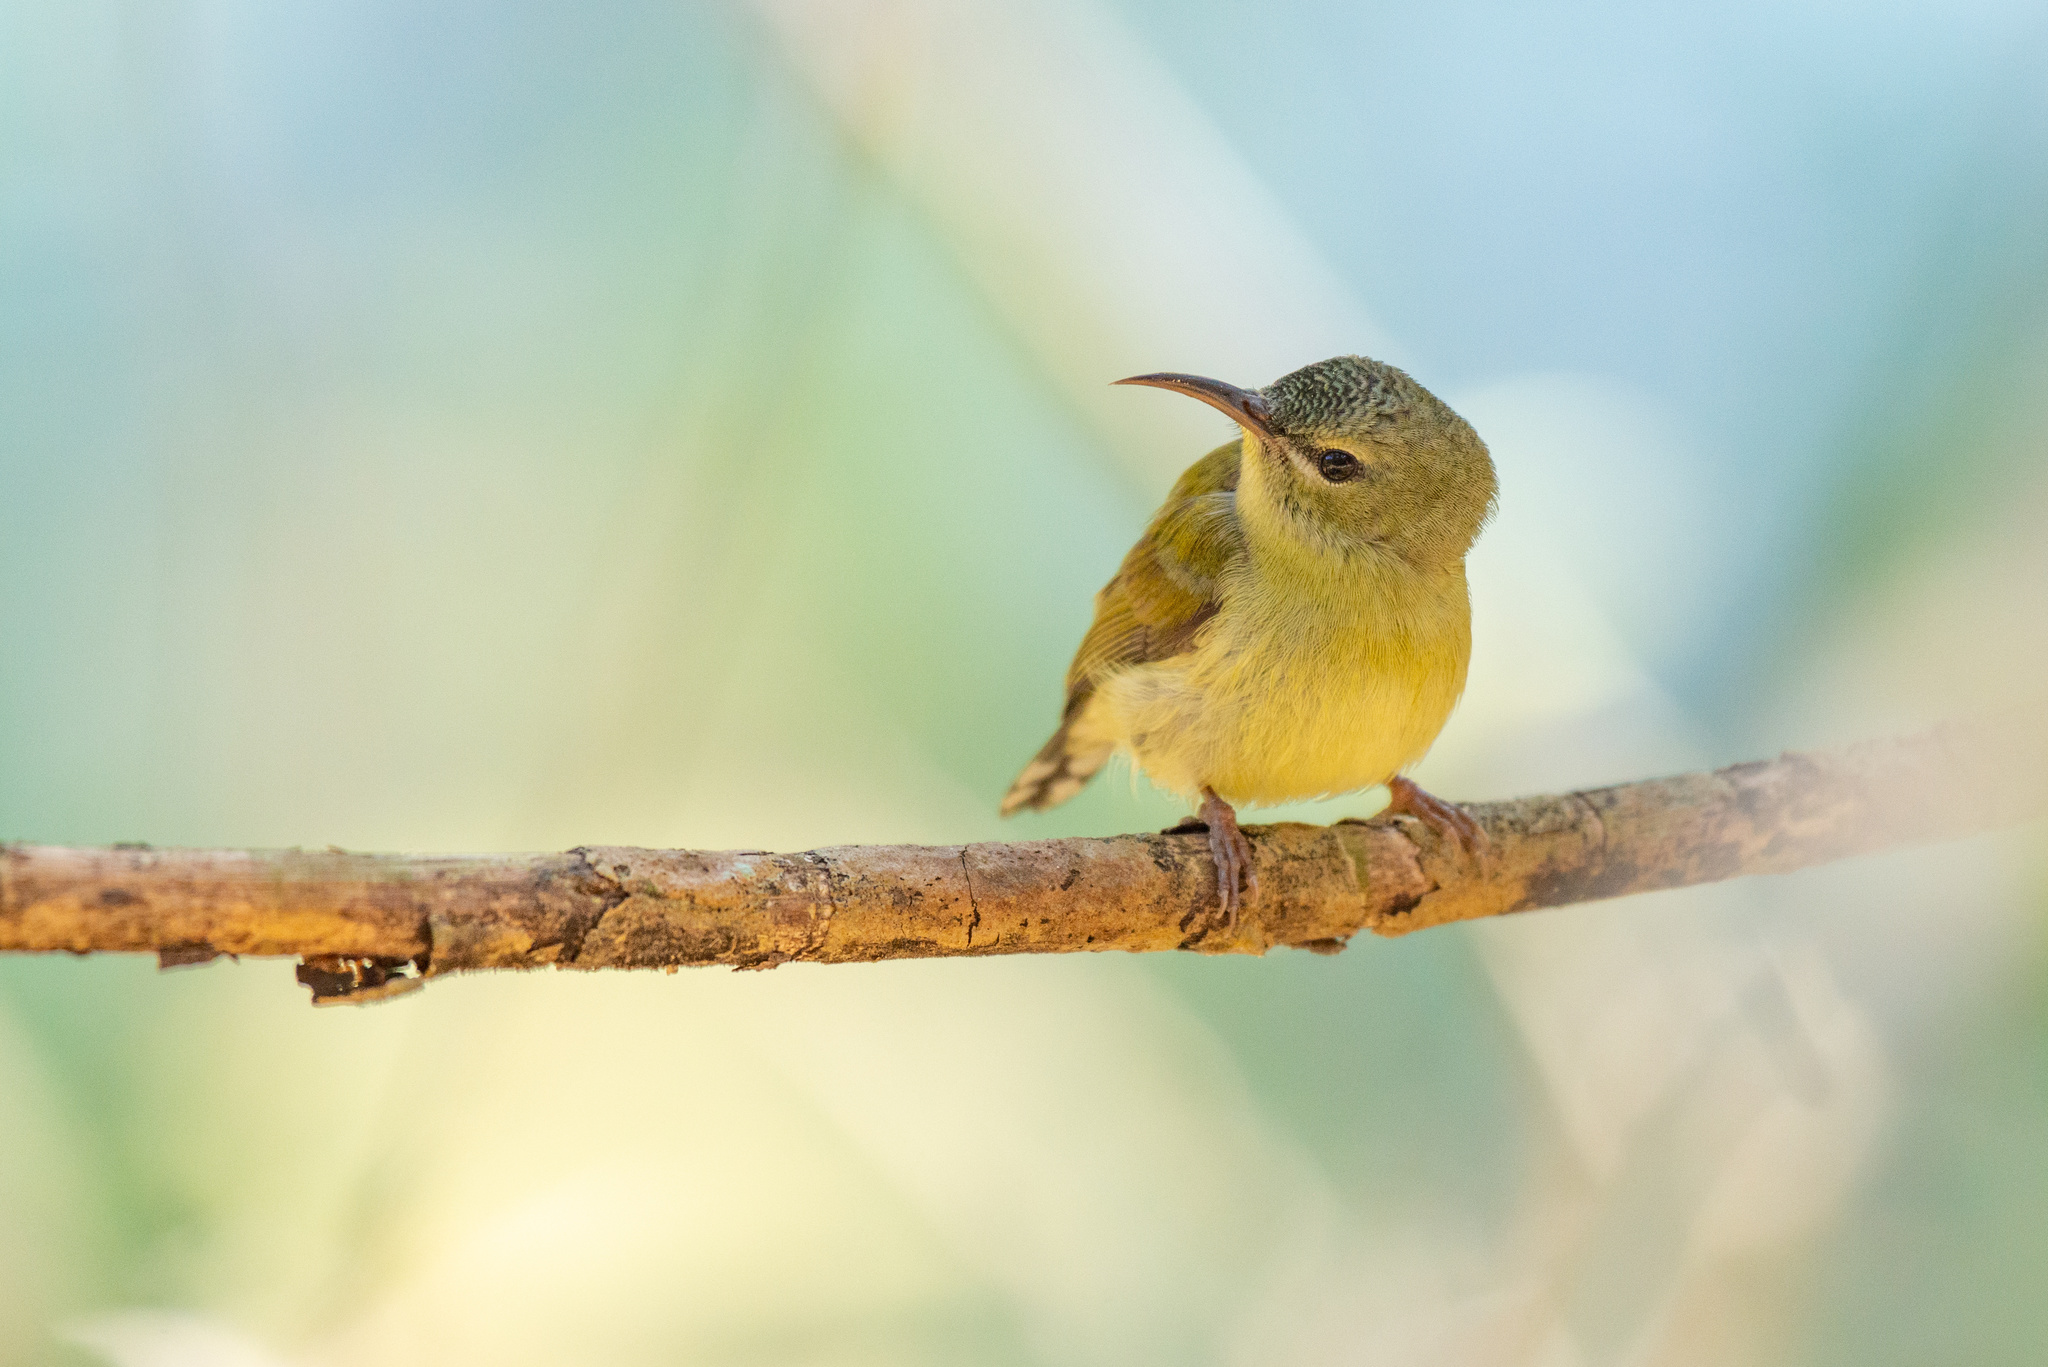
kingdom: Animalia
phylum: Chordata
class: Aves
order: Passeriformes
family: Nectariniidae
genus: Aethopyga
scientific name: Aethopyga christinae
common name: Fork-tailed sunbird
